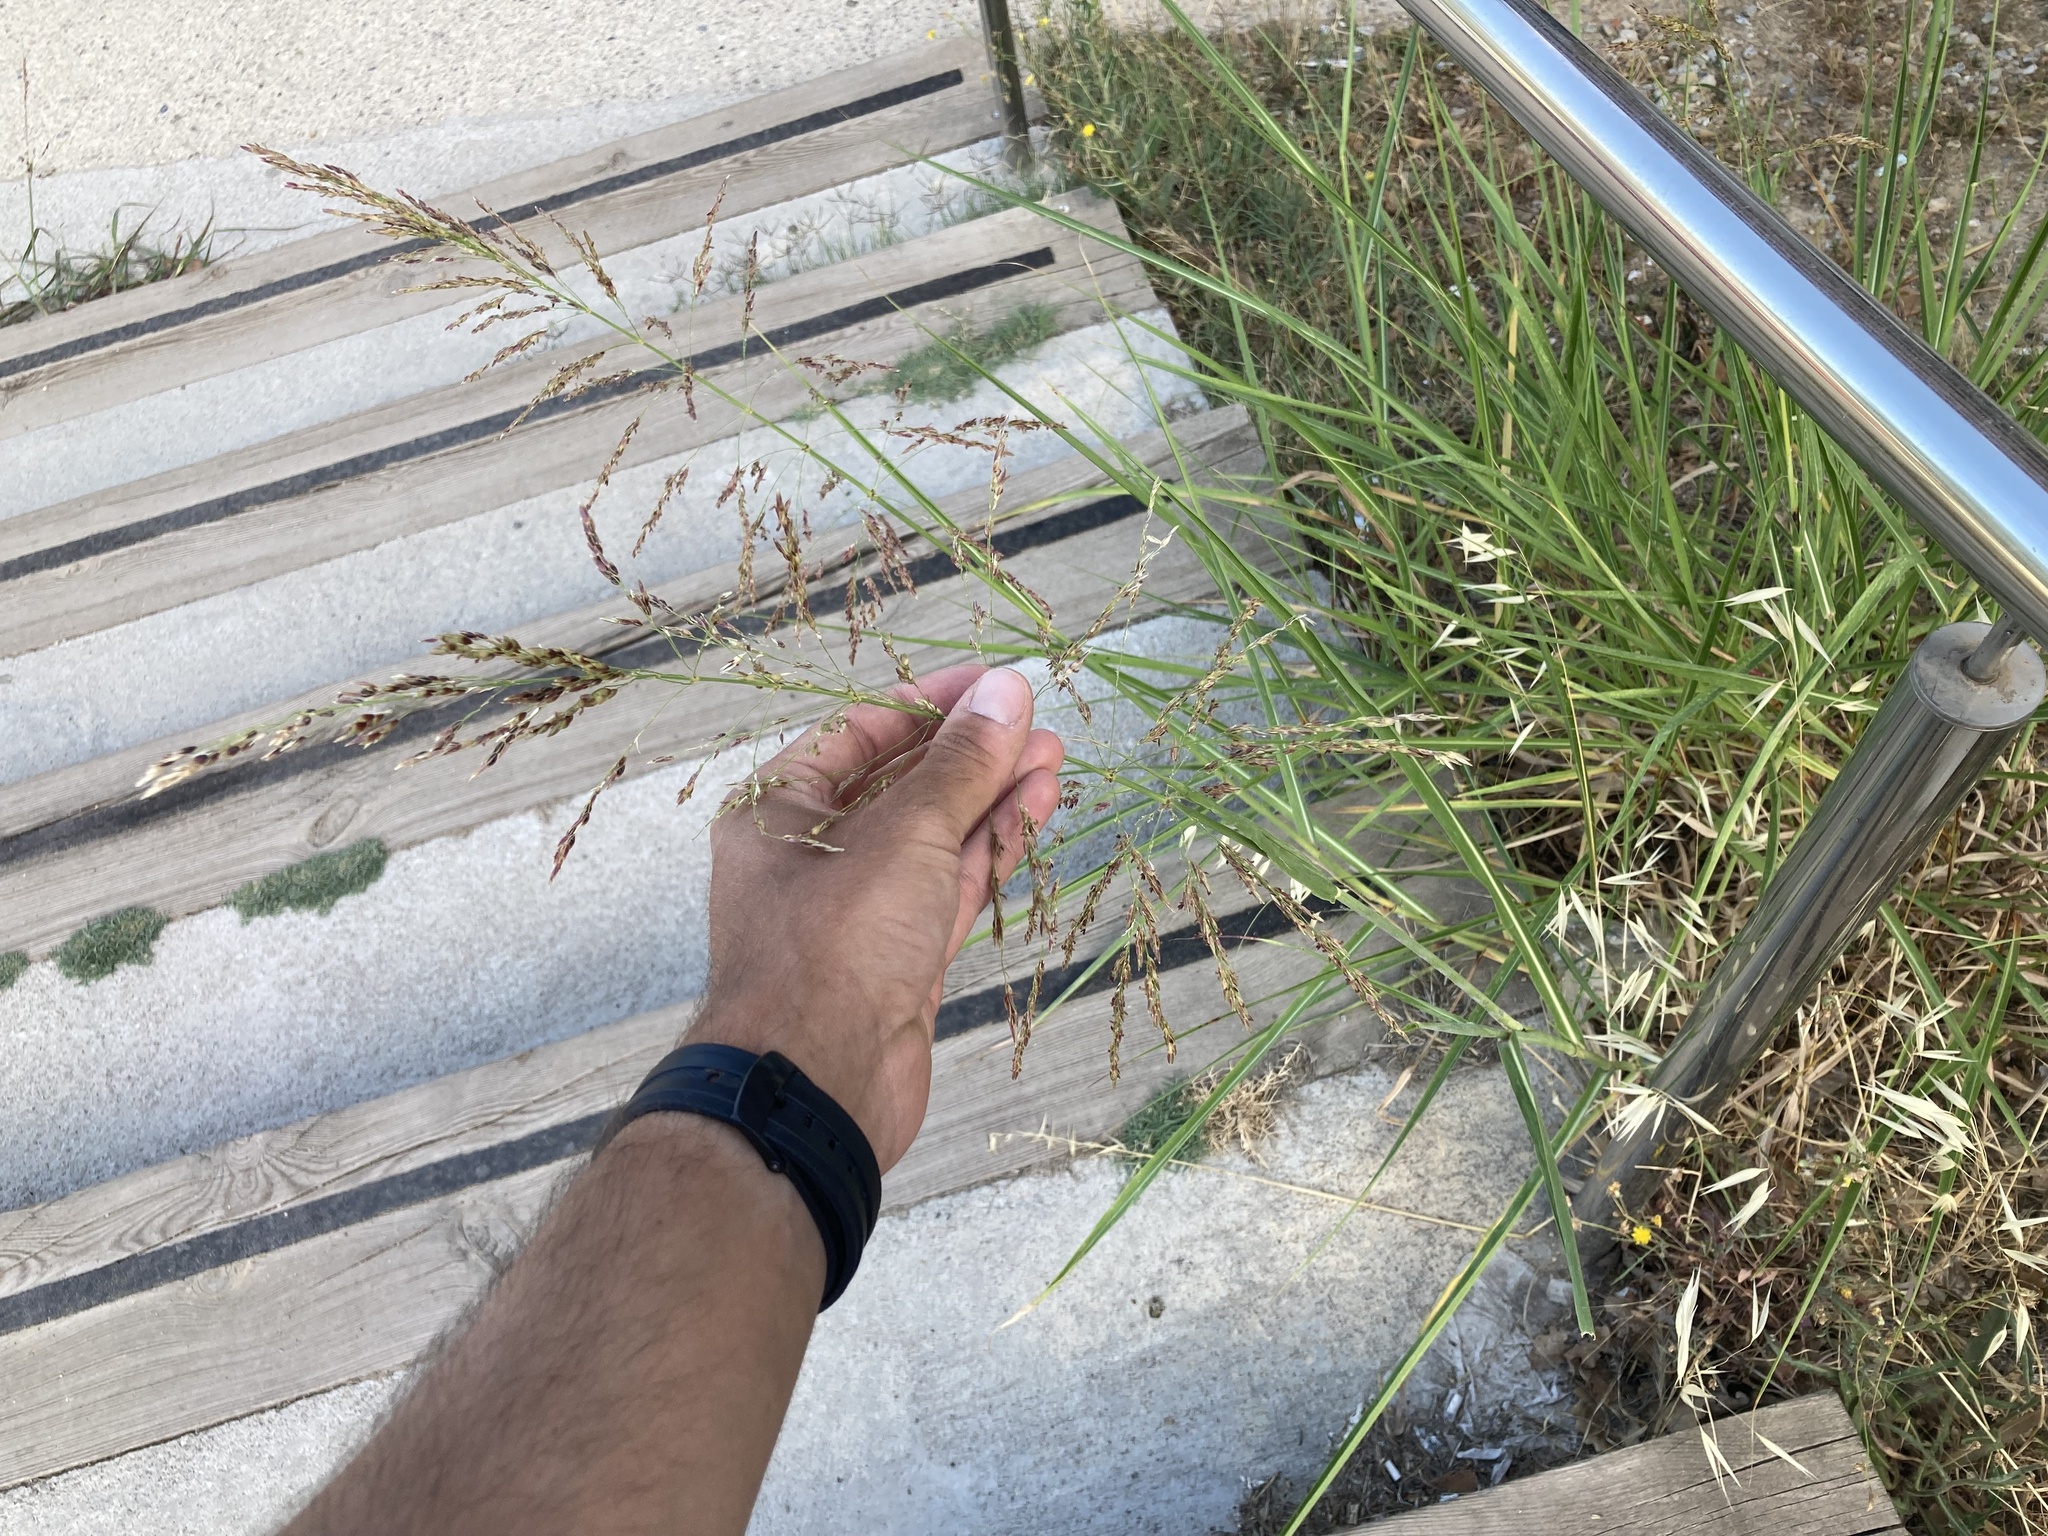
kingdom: Plantae
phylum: Tracheophyta
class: Liliopsida
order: Poales
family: Poaceae
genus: Sorghum
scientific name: Sorghum halepense
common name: Johnson-grass
